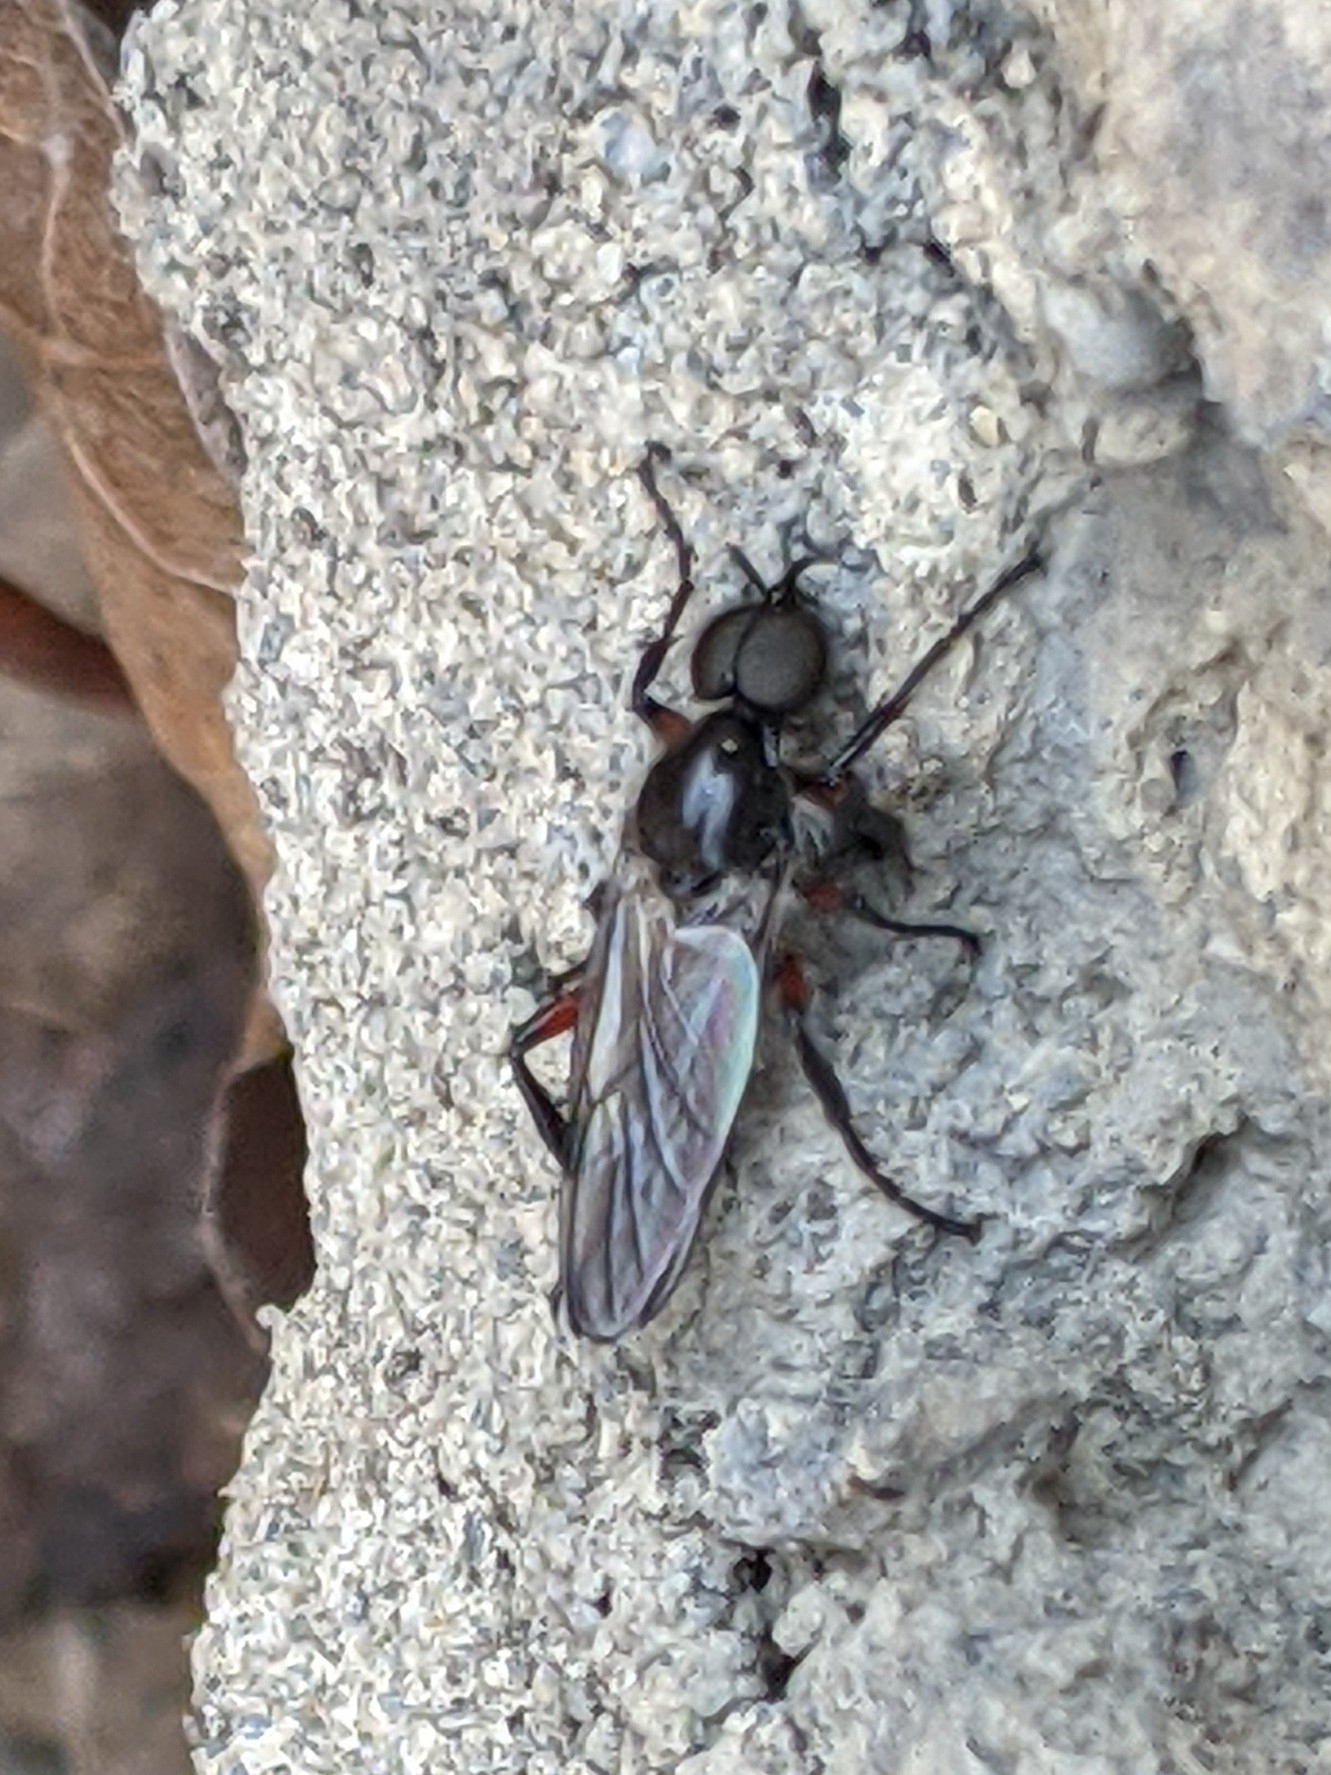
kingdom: Animalia
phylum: Arthropoda
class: Insecta
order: Diptera
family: Bibionidae
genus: Bibio
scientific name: Bibio femoratus
